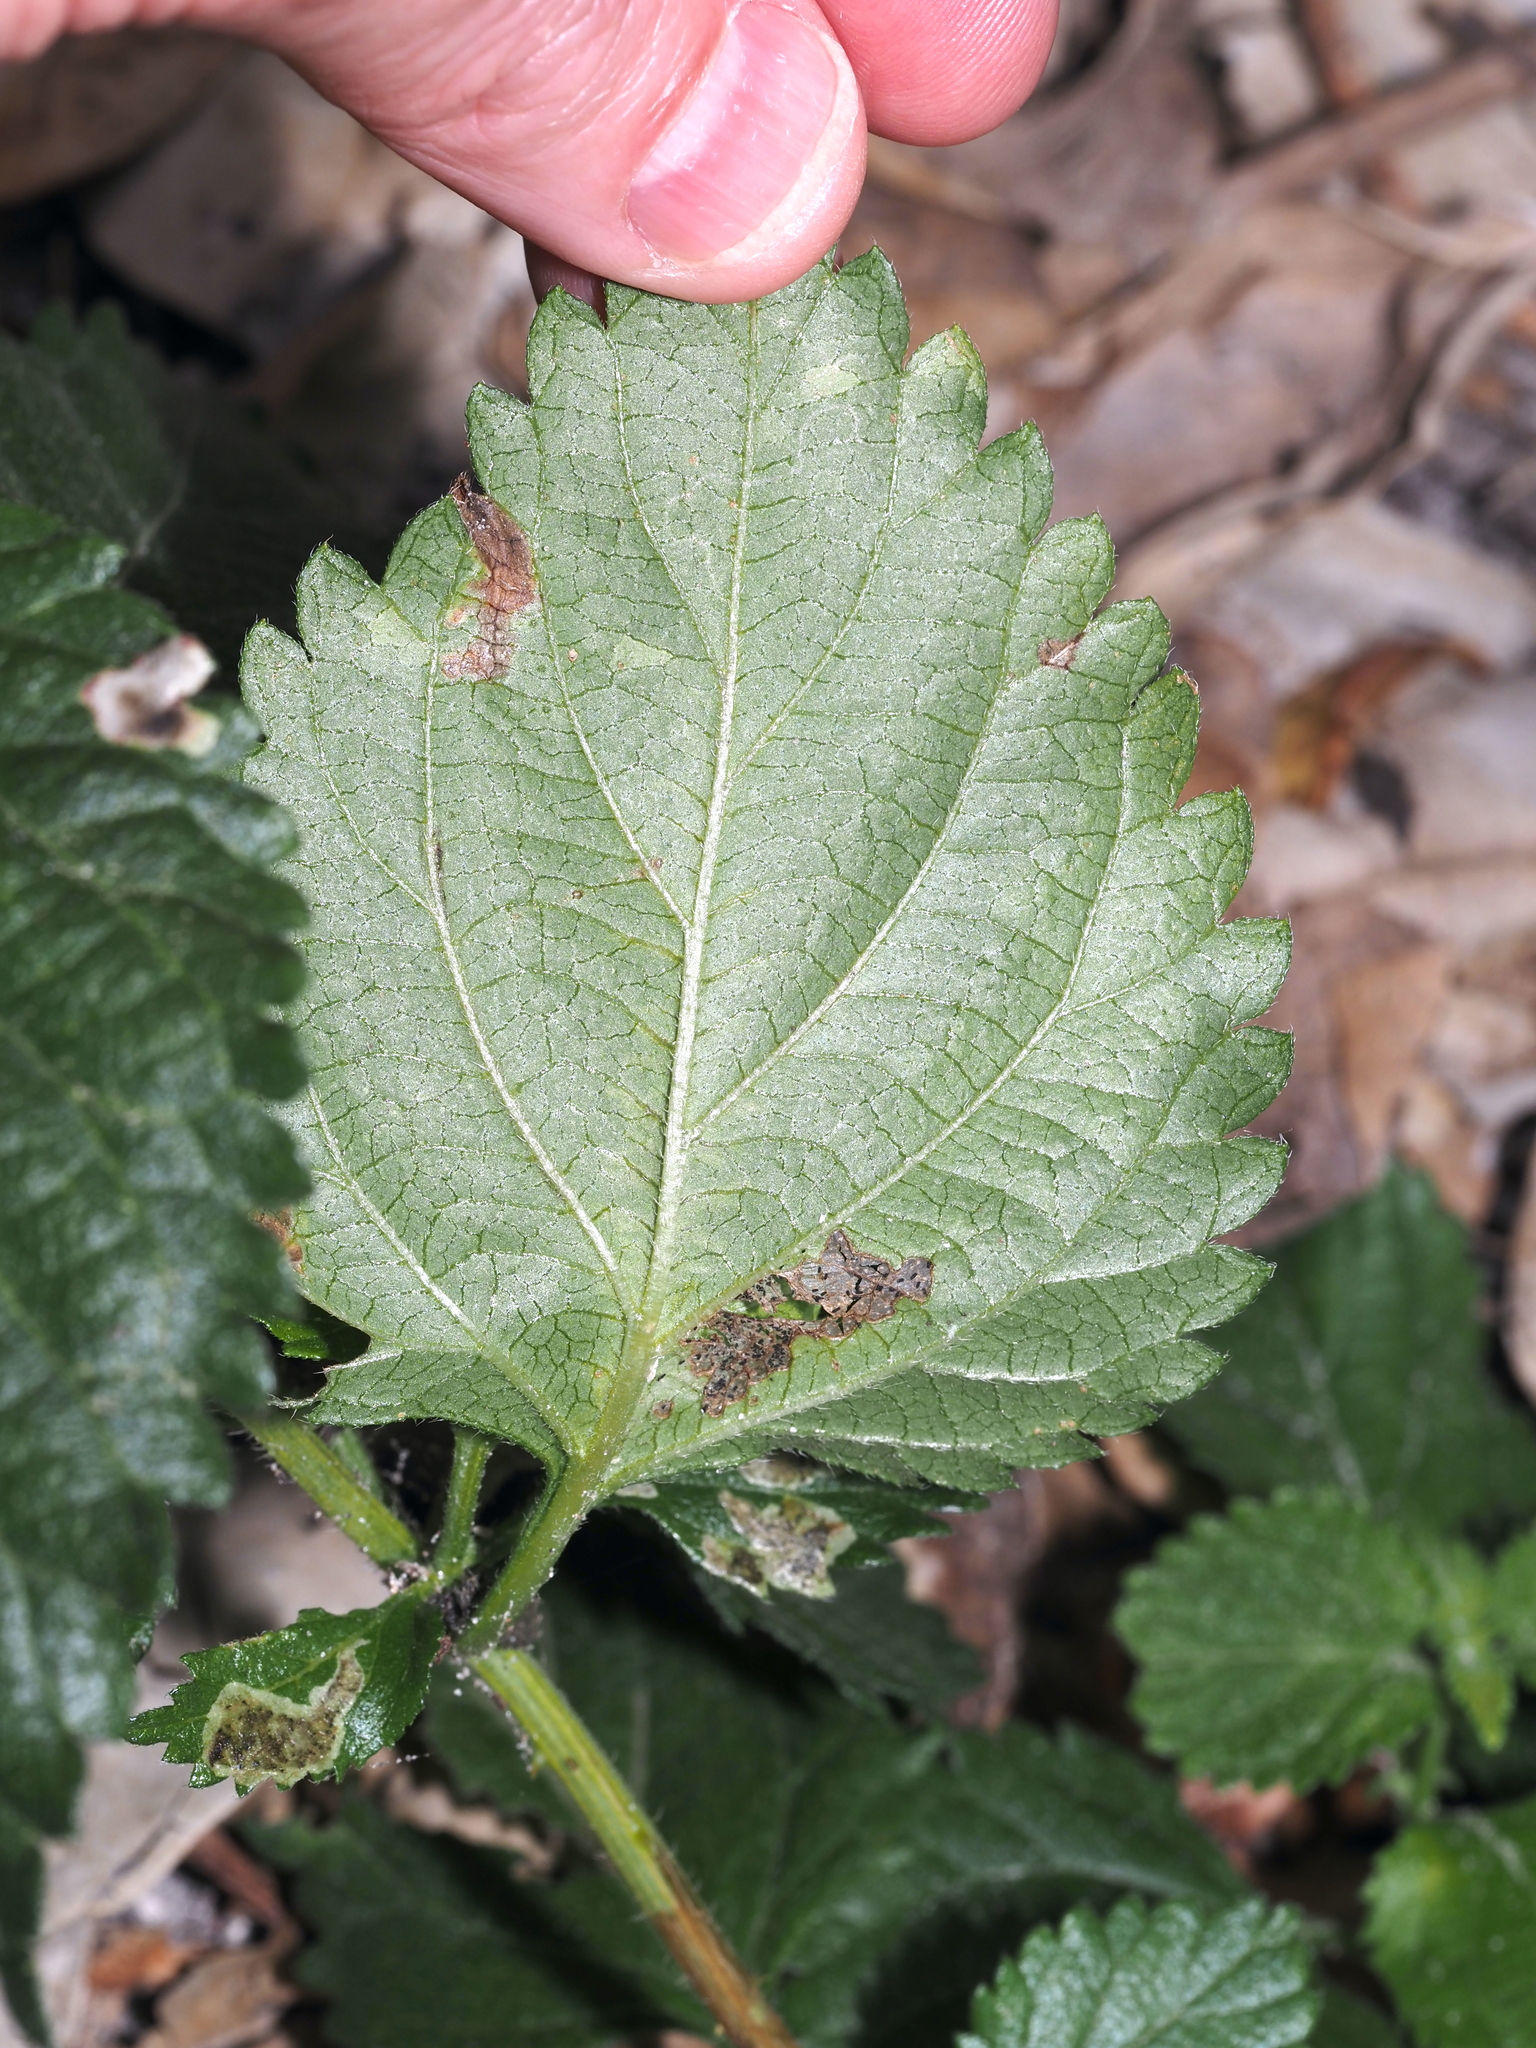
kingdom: Animalia
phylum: Arthropoda
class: Insecta
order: Diptera
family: Agromyzidae
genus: Calycomyza
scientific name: Calycomyza lantanae
